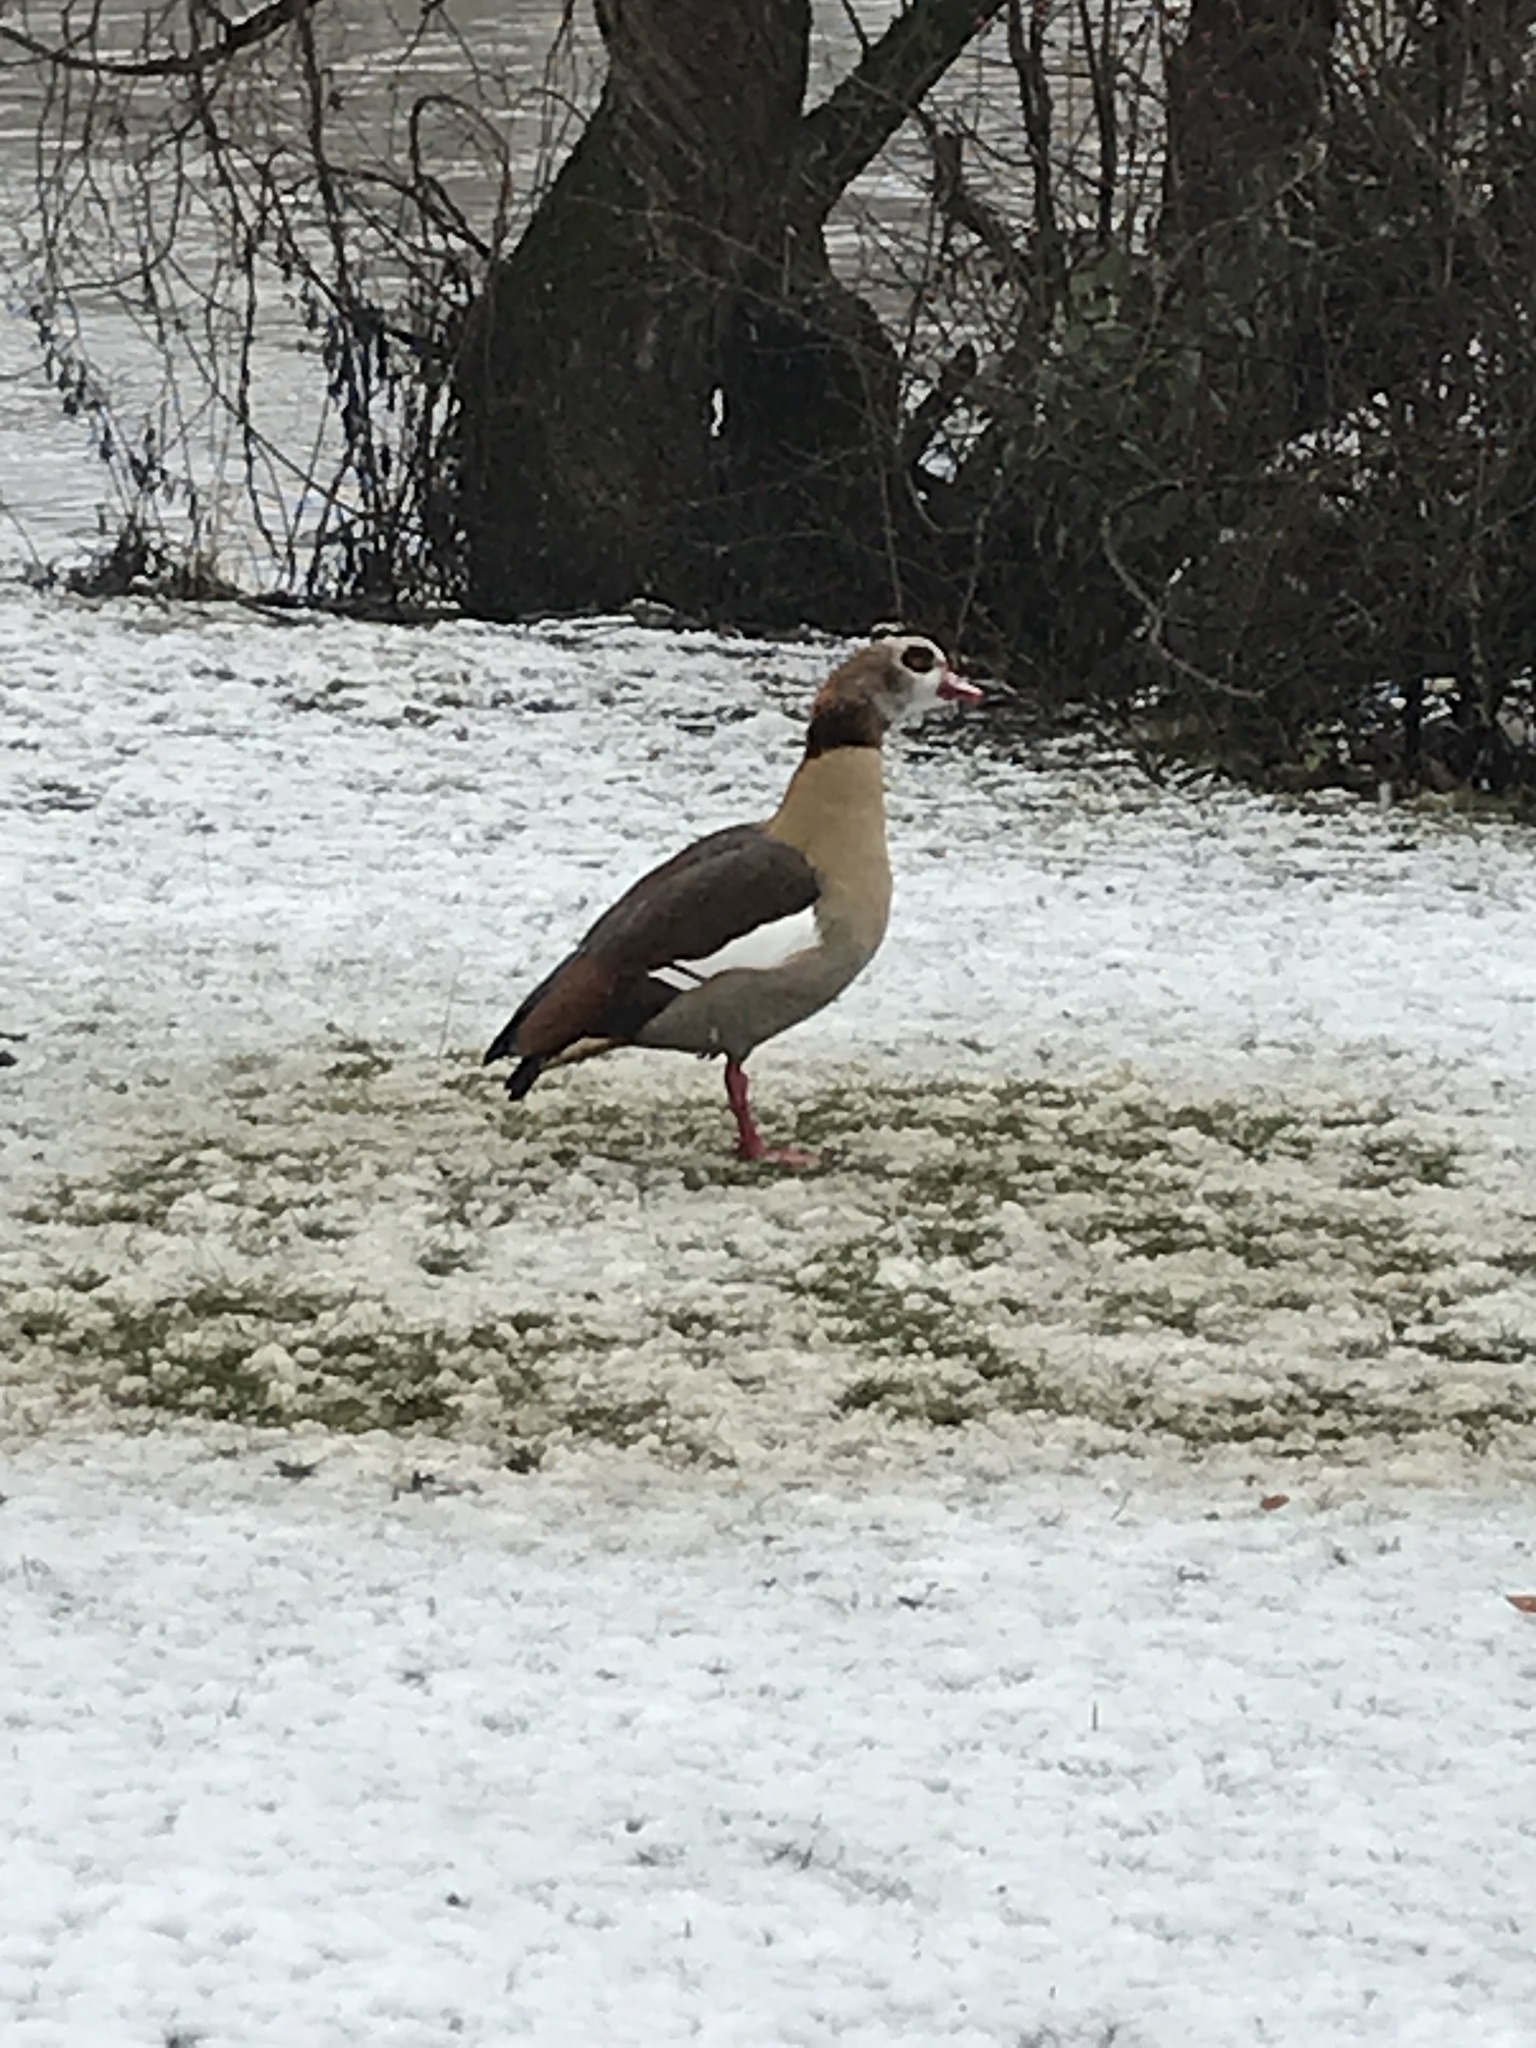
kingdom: Animalia
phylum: Chordata
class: Aves
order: Anseriformes
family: Anatidae
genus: Alopochen
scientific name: Alopochen aegyptiaca
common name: Egyptian goose
